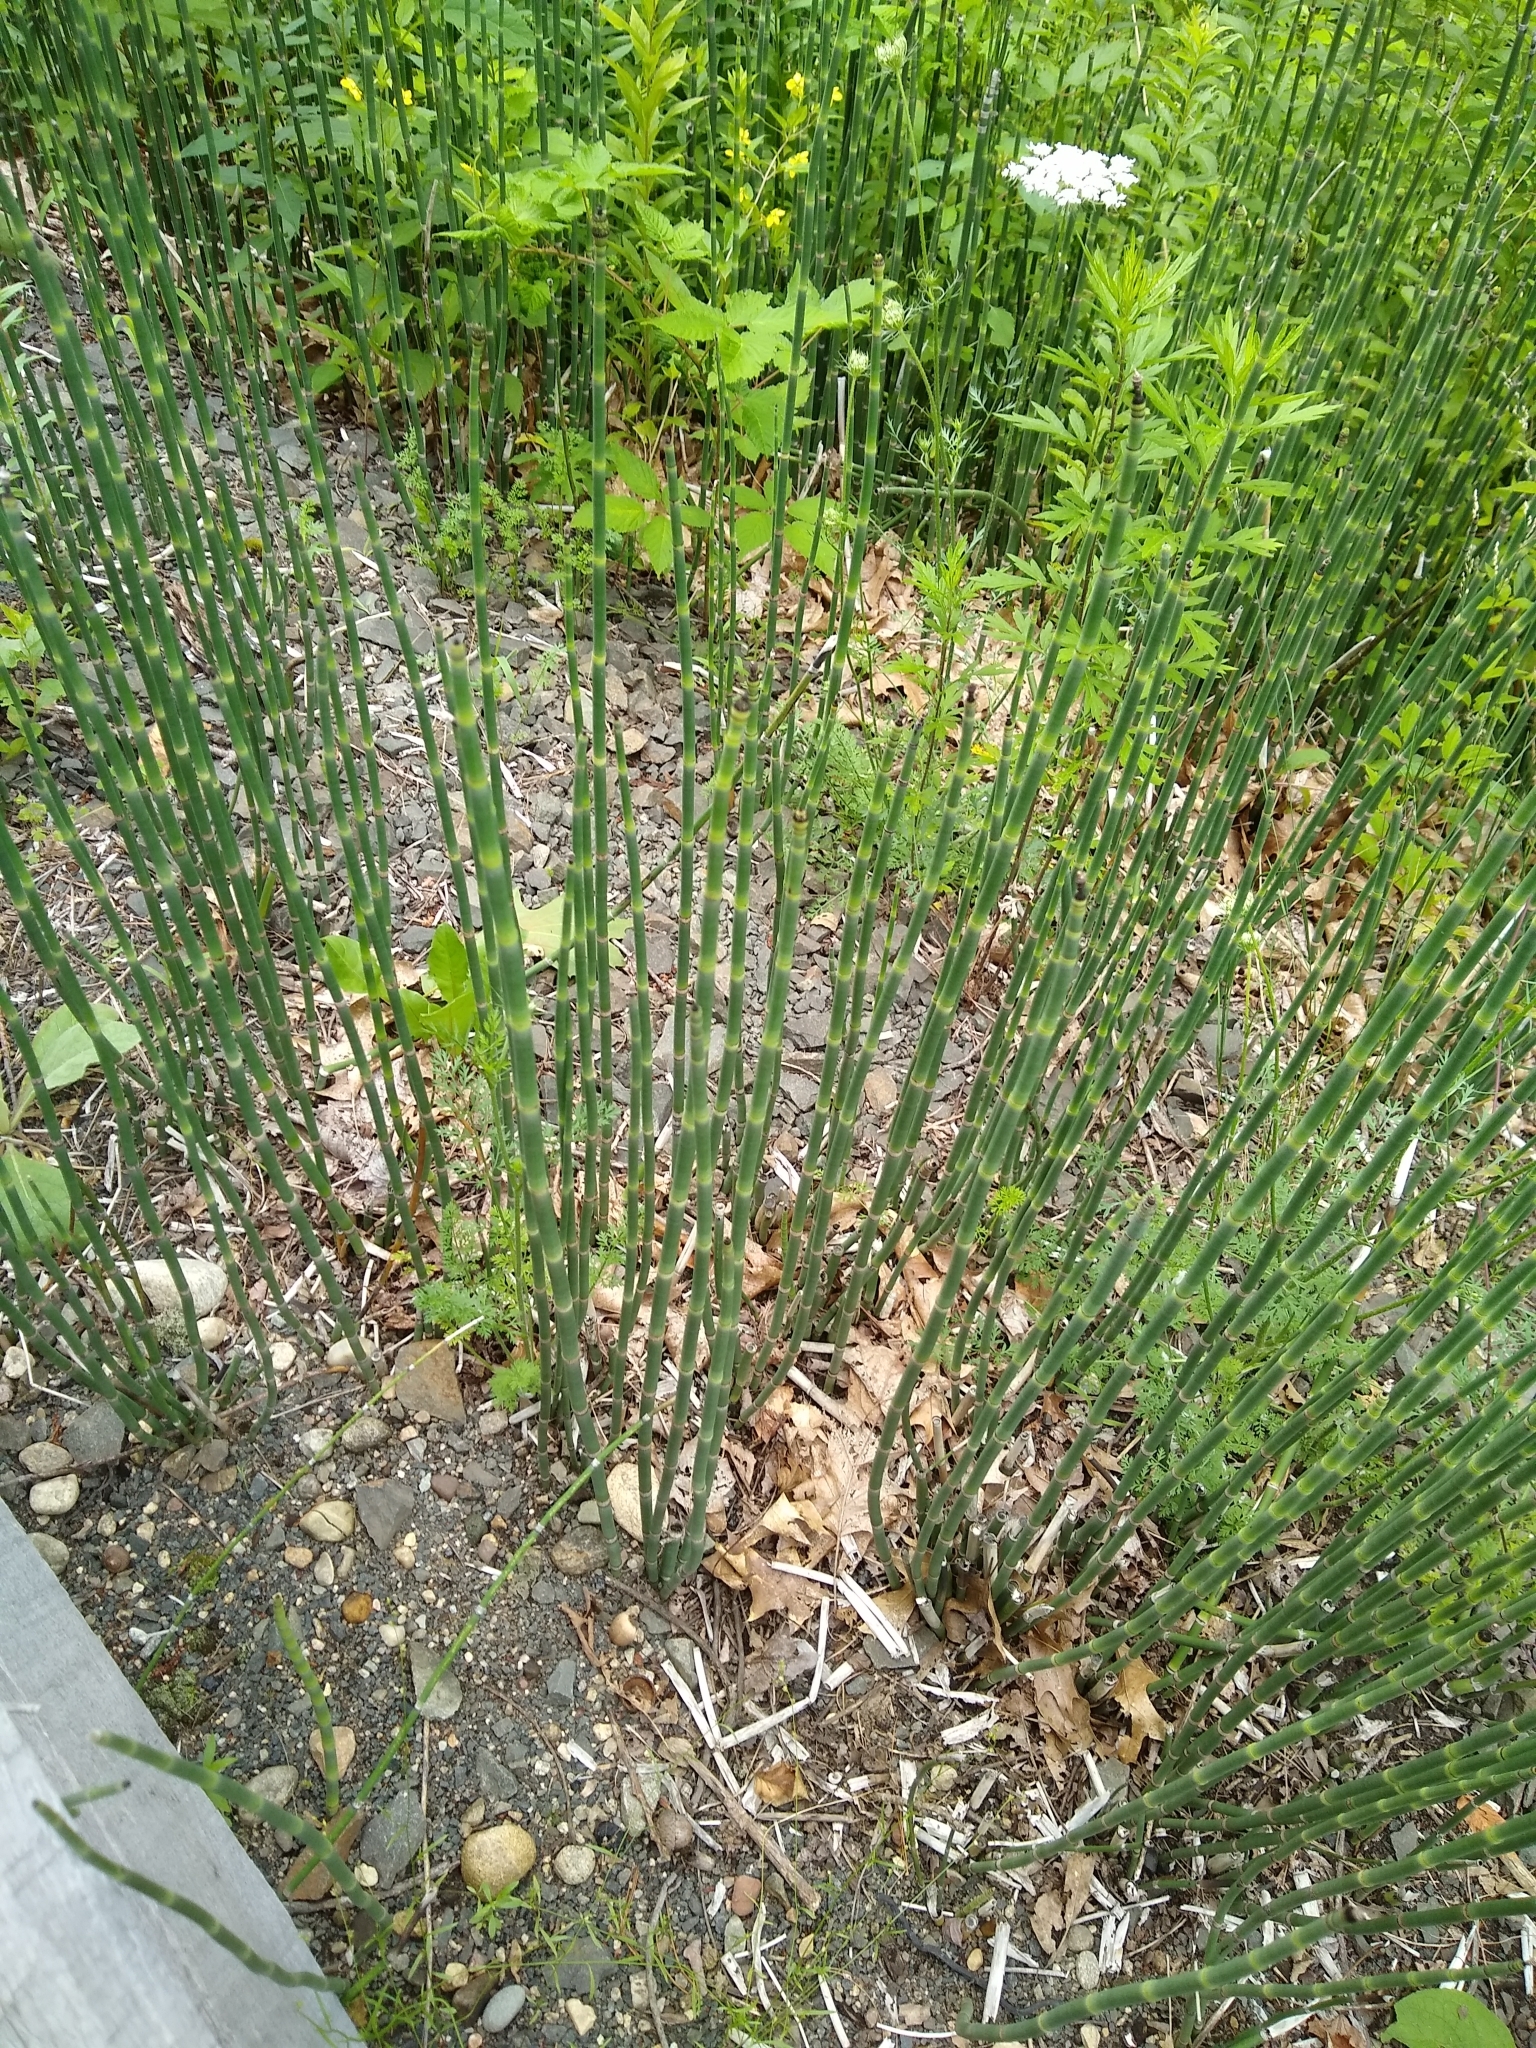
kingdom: Plantae
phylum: Tracheophyta
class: Polypodiopsida
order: Equisetales
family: Equisetaceae
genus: Equisetum
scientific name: Equisetum hyemale
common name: Rough horsetail
